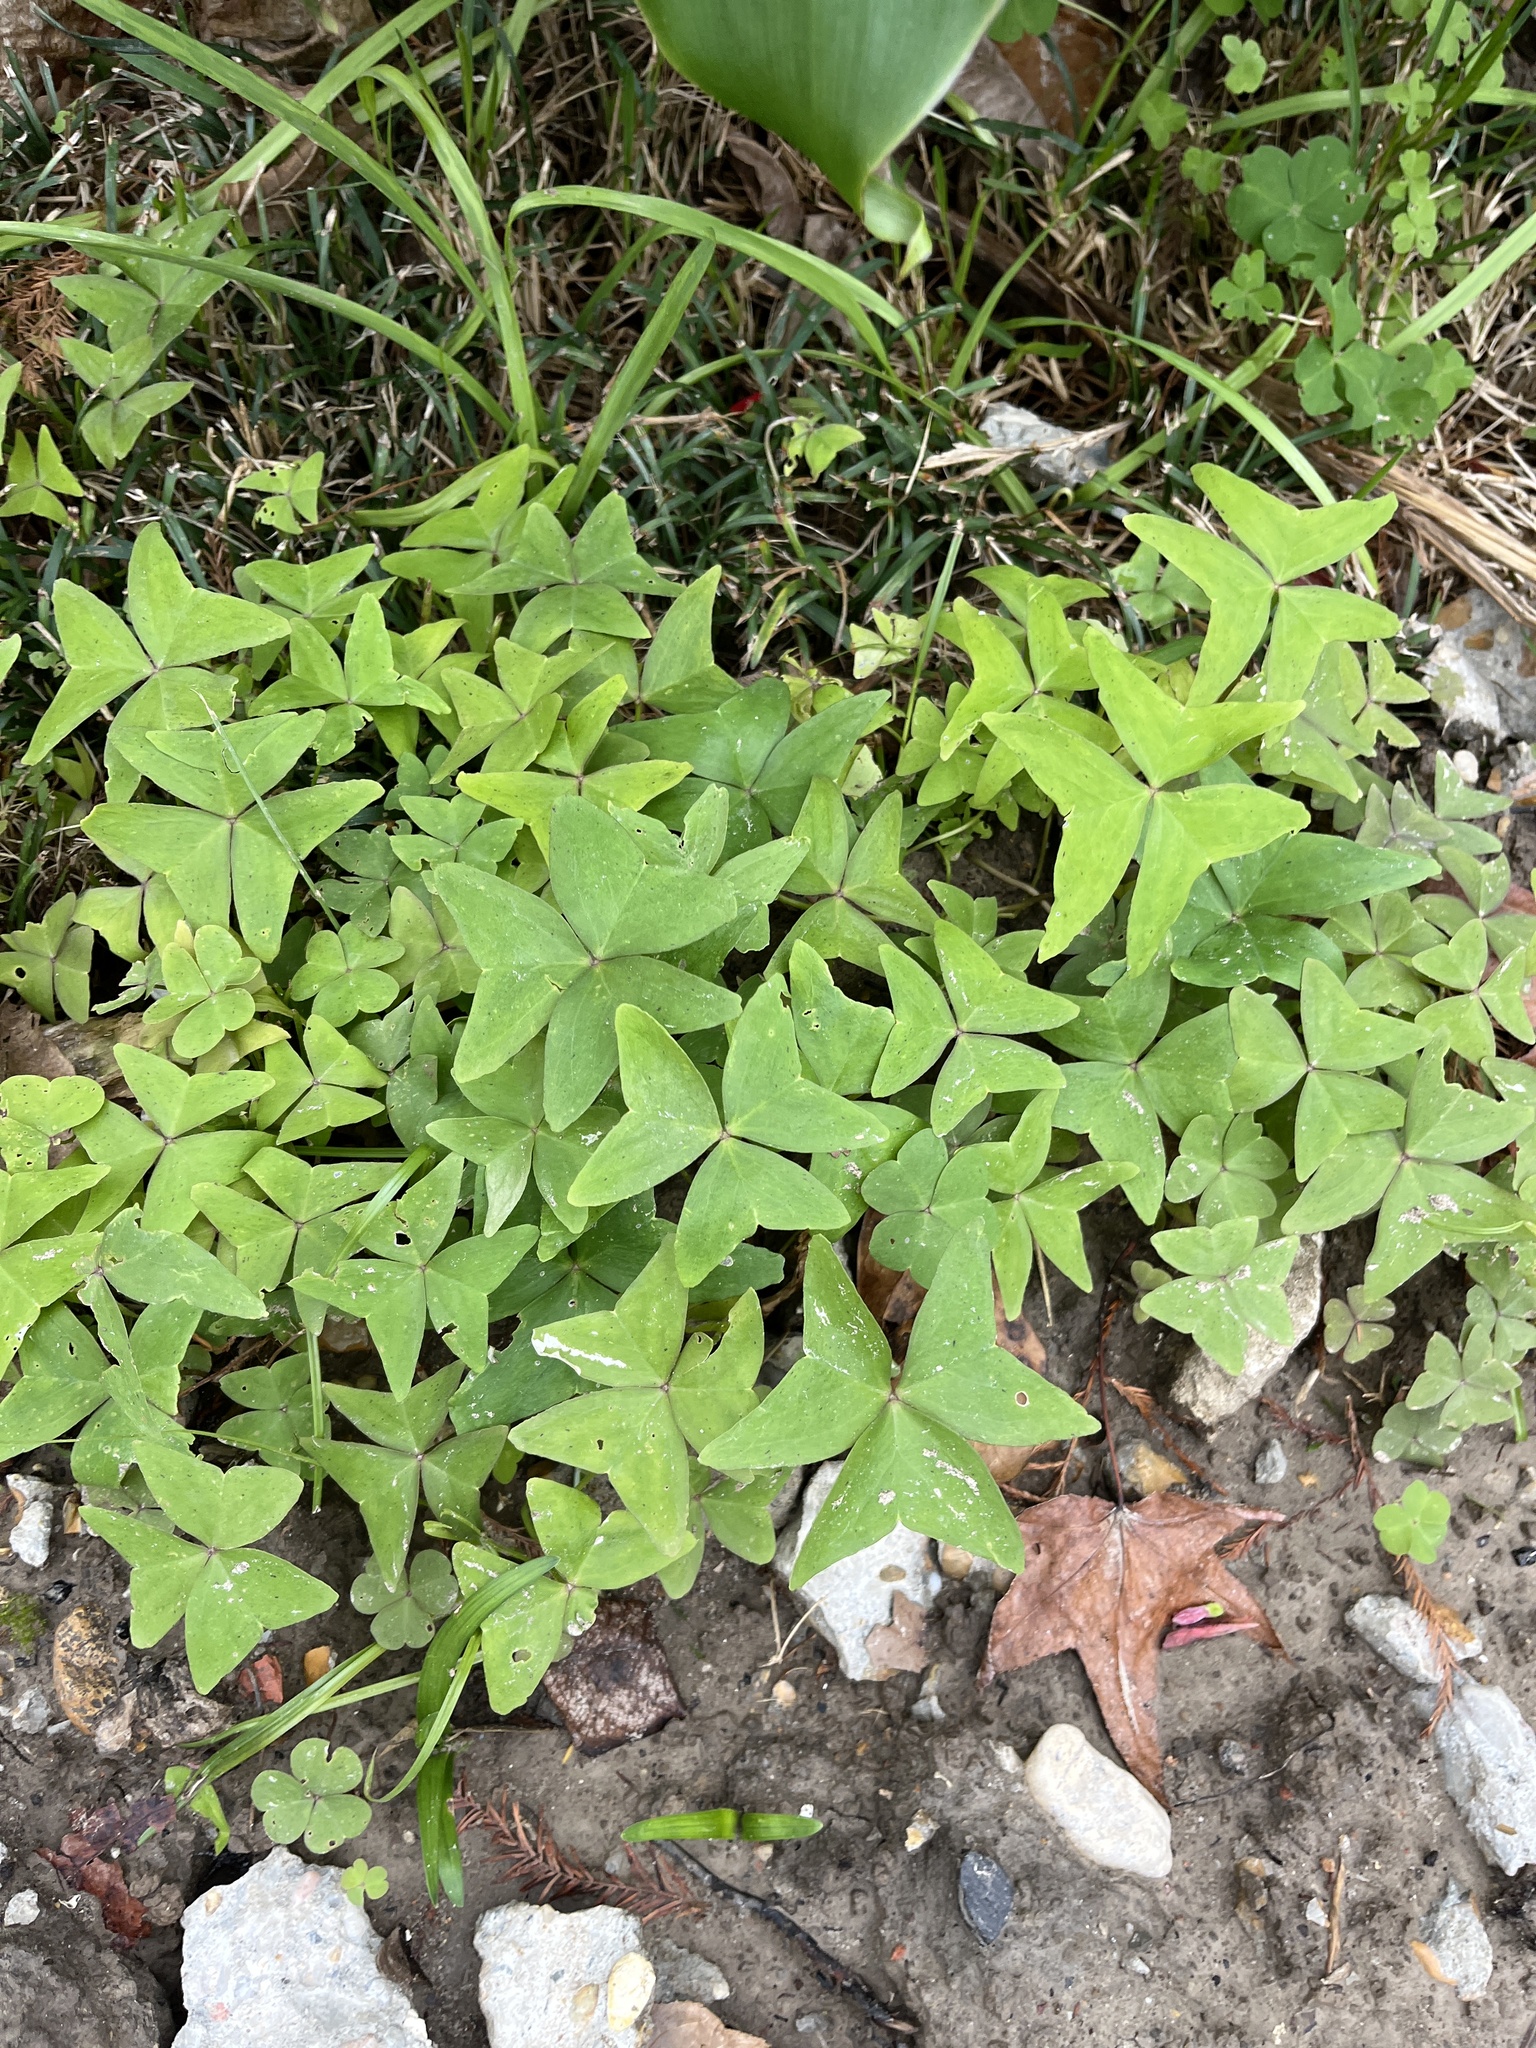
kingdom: Plantae
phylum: Tracheophyta
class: Magnoliopsida
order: Oxalidales
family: Oxalidaceae
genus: Oxalis
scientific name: Oxalis intermedia
